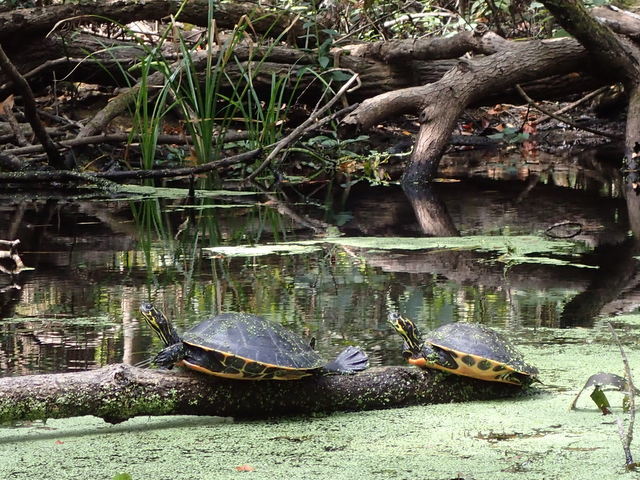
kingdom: Animalia
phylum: Chordata
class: Testudines
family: Emydidae
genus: Pseudemys
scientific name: Pseudemys peninsularis
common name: Peninsula cooter
